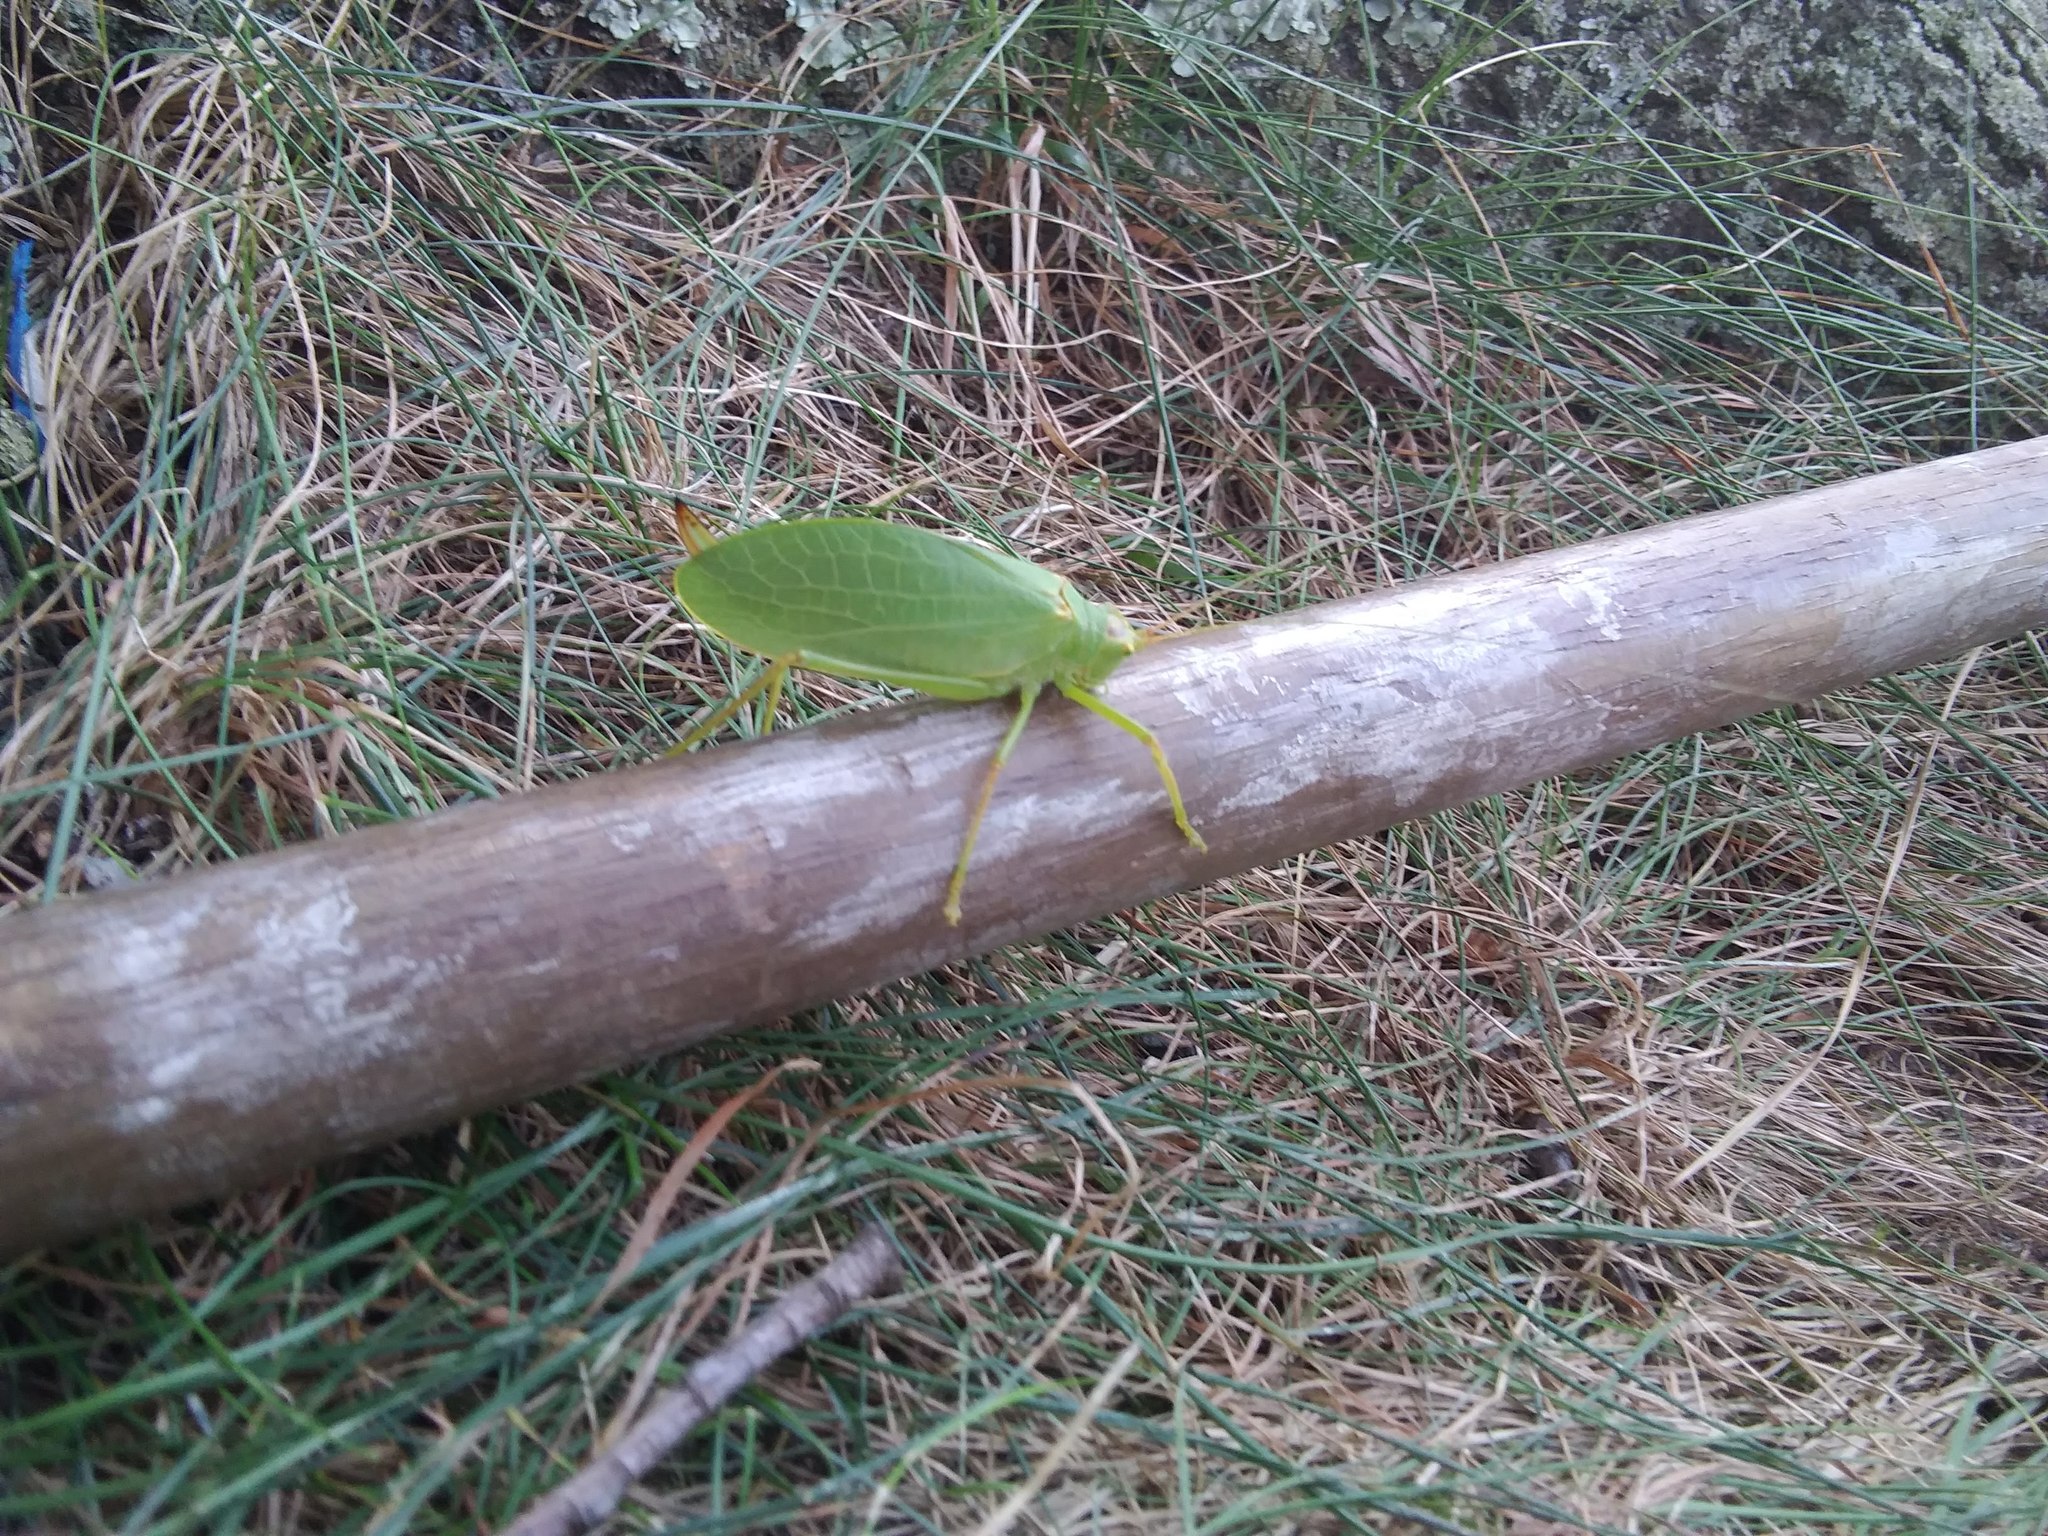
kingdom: Animalia
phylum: Arthropoda
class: Insecta
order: Orthoptera
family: Tettigoniidae
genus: Pterophylla
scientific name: Pterophylla camellifolia
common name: Common true katydid
